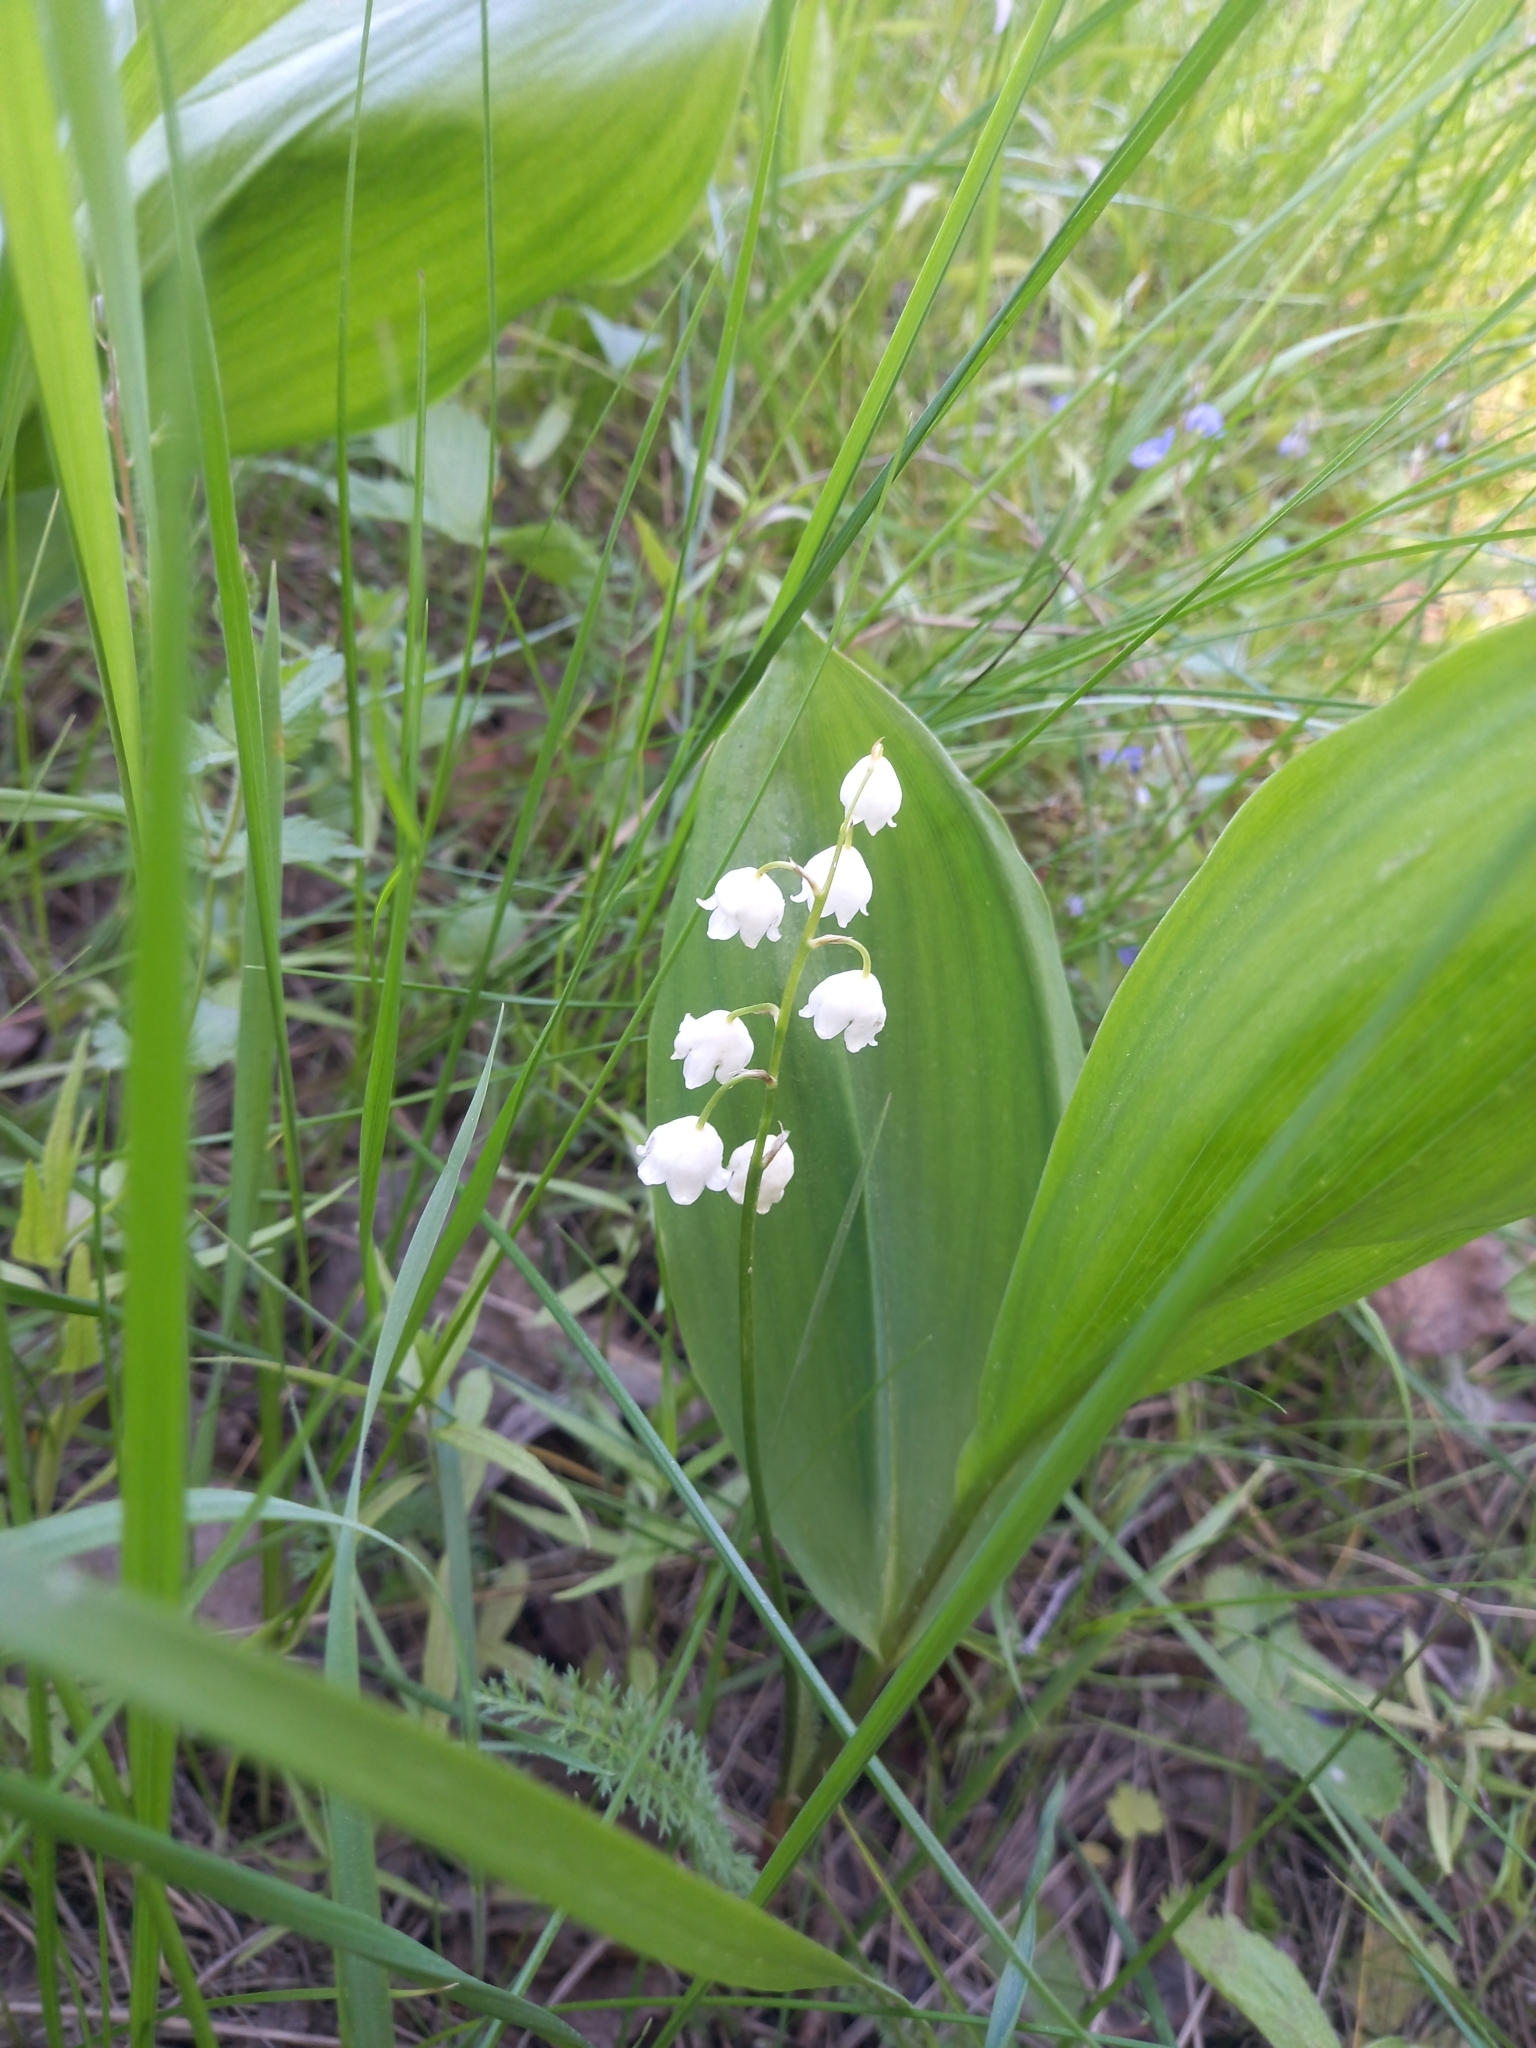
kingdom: Plantae
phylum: Tracheophyta
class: Liliopsida
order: Asparagales
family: Asparagaceae
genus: Convallaria
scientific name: Convallaria majalis
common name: Lily-of-the-valley
